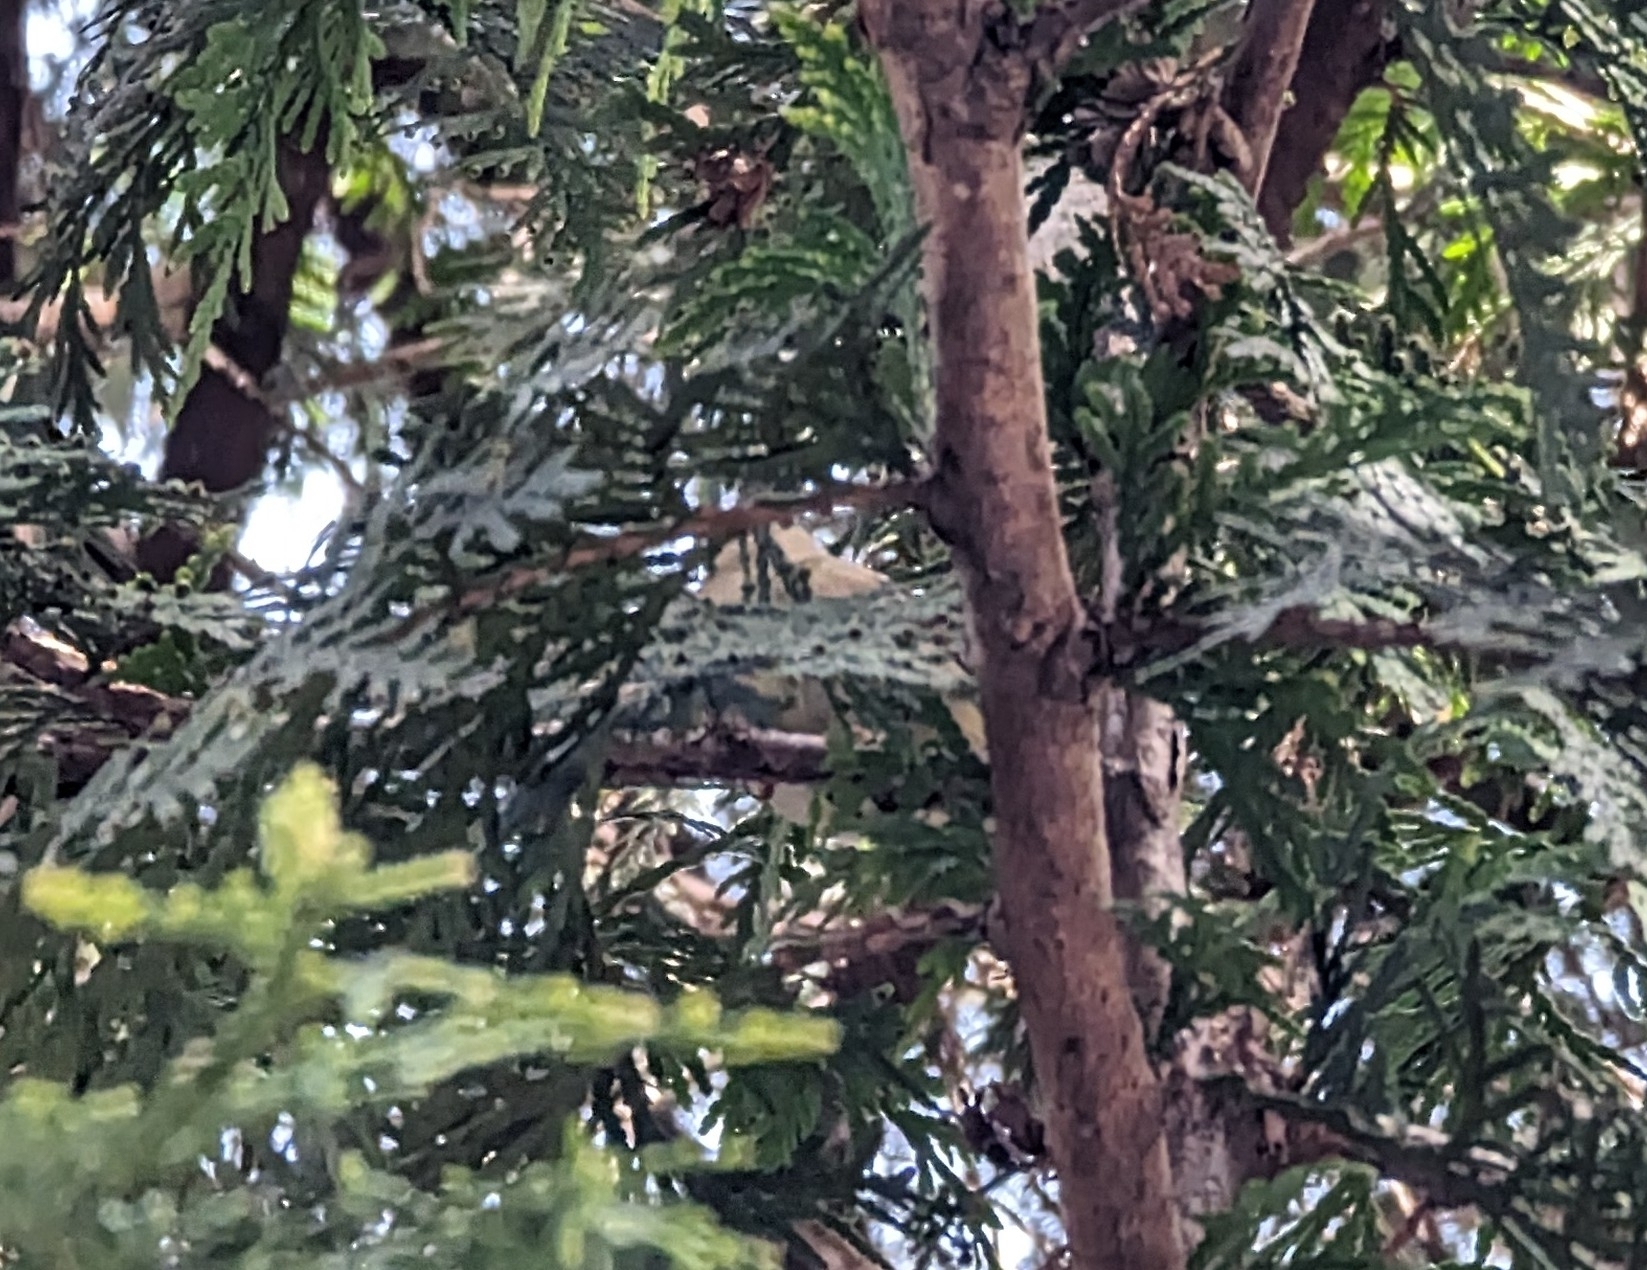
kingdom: Animalia
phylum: Chordata
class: Aves
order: Passeriformes
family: Regulidae
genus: Regulus
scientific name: Regulus calendula
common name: Ruby-crowned kinglet
